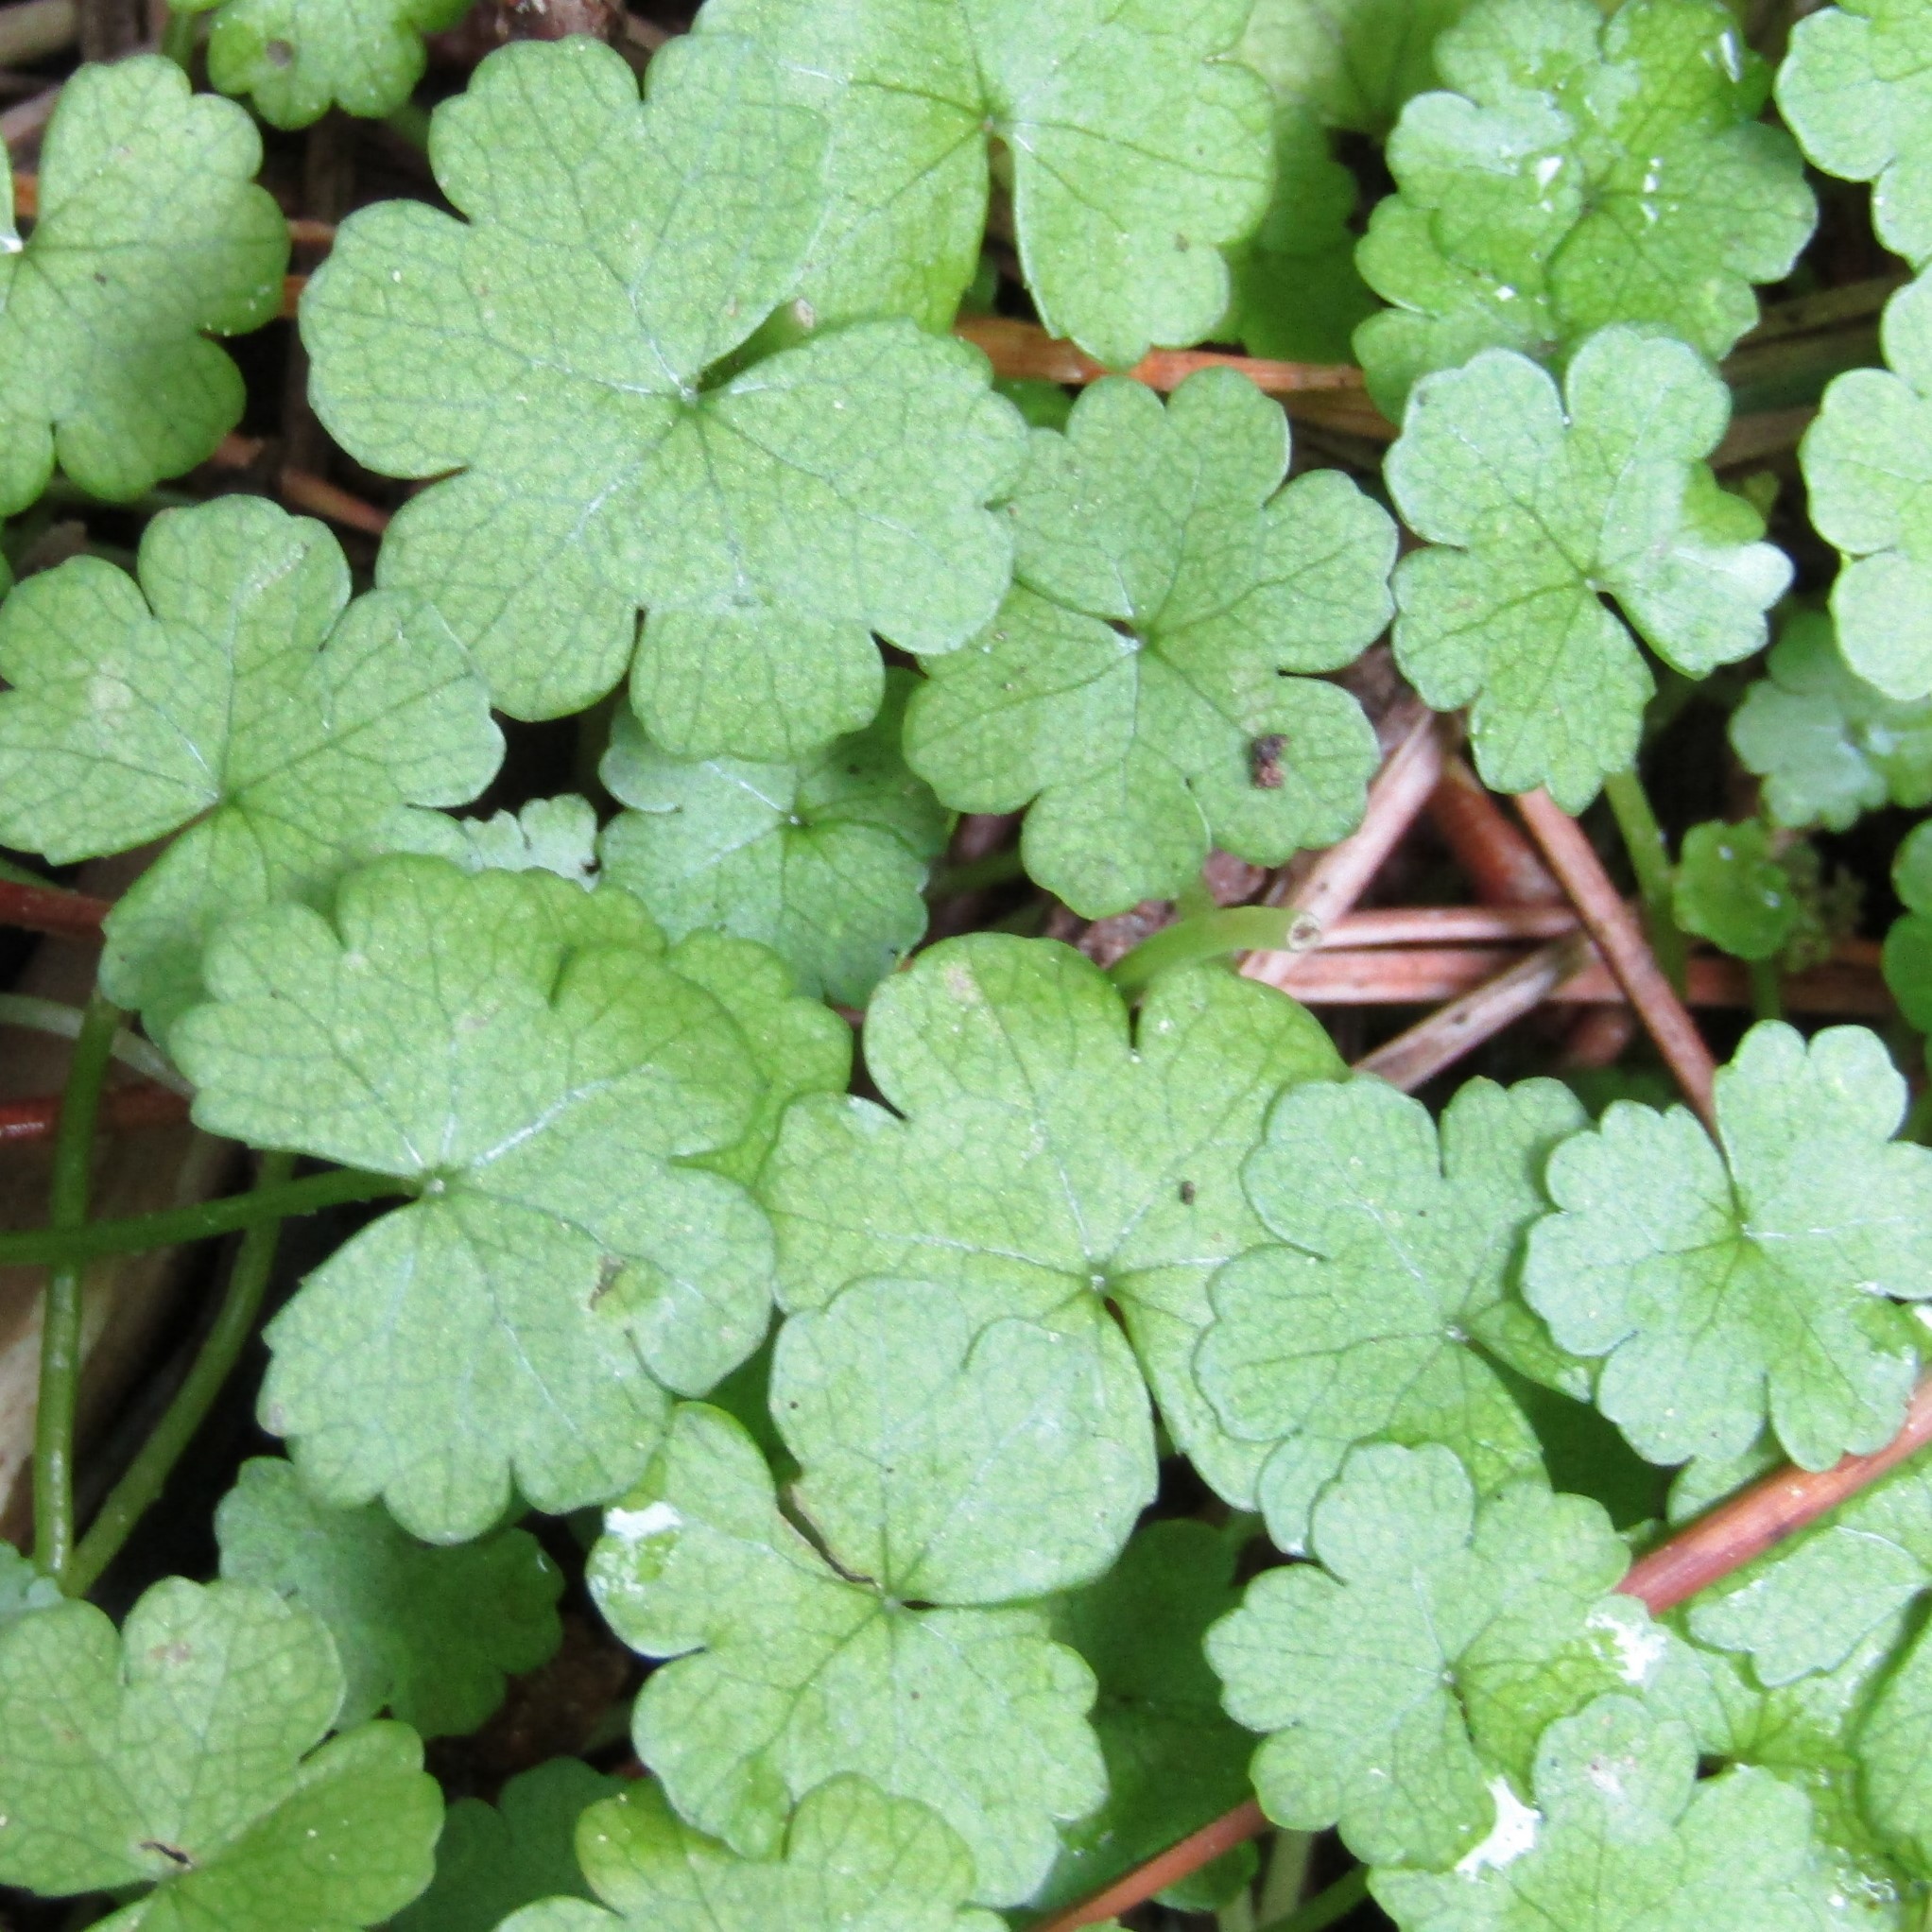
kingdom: Plantae
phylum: Tracheophyta
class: Magnoliopsida
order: Apiales
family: Araliaceae
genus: Hydrocotyle
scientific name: Hydrocotyle heteromeria
